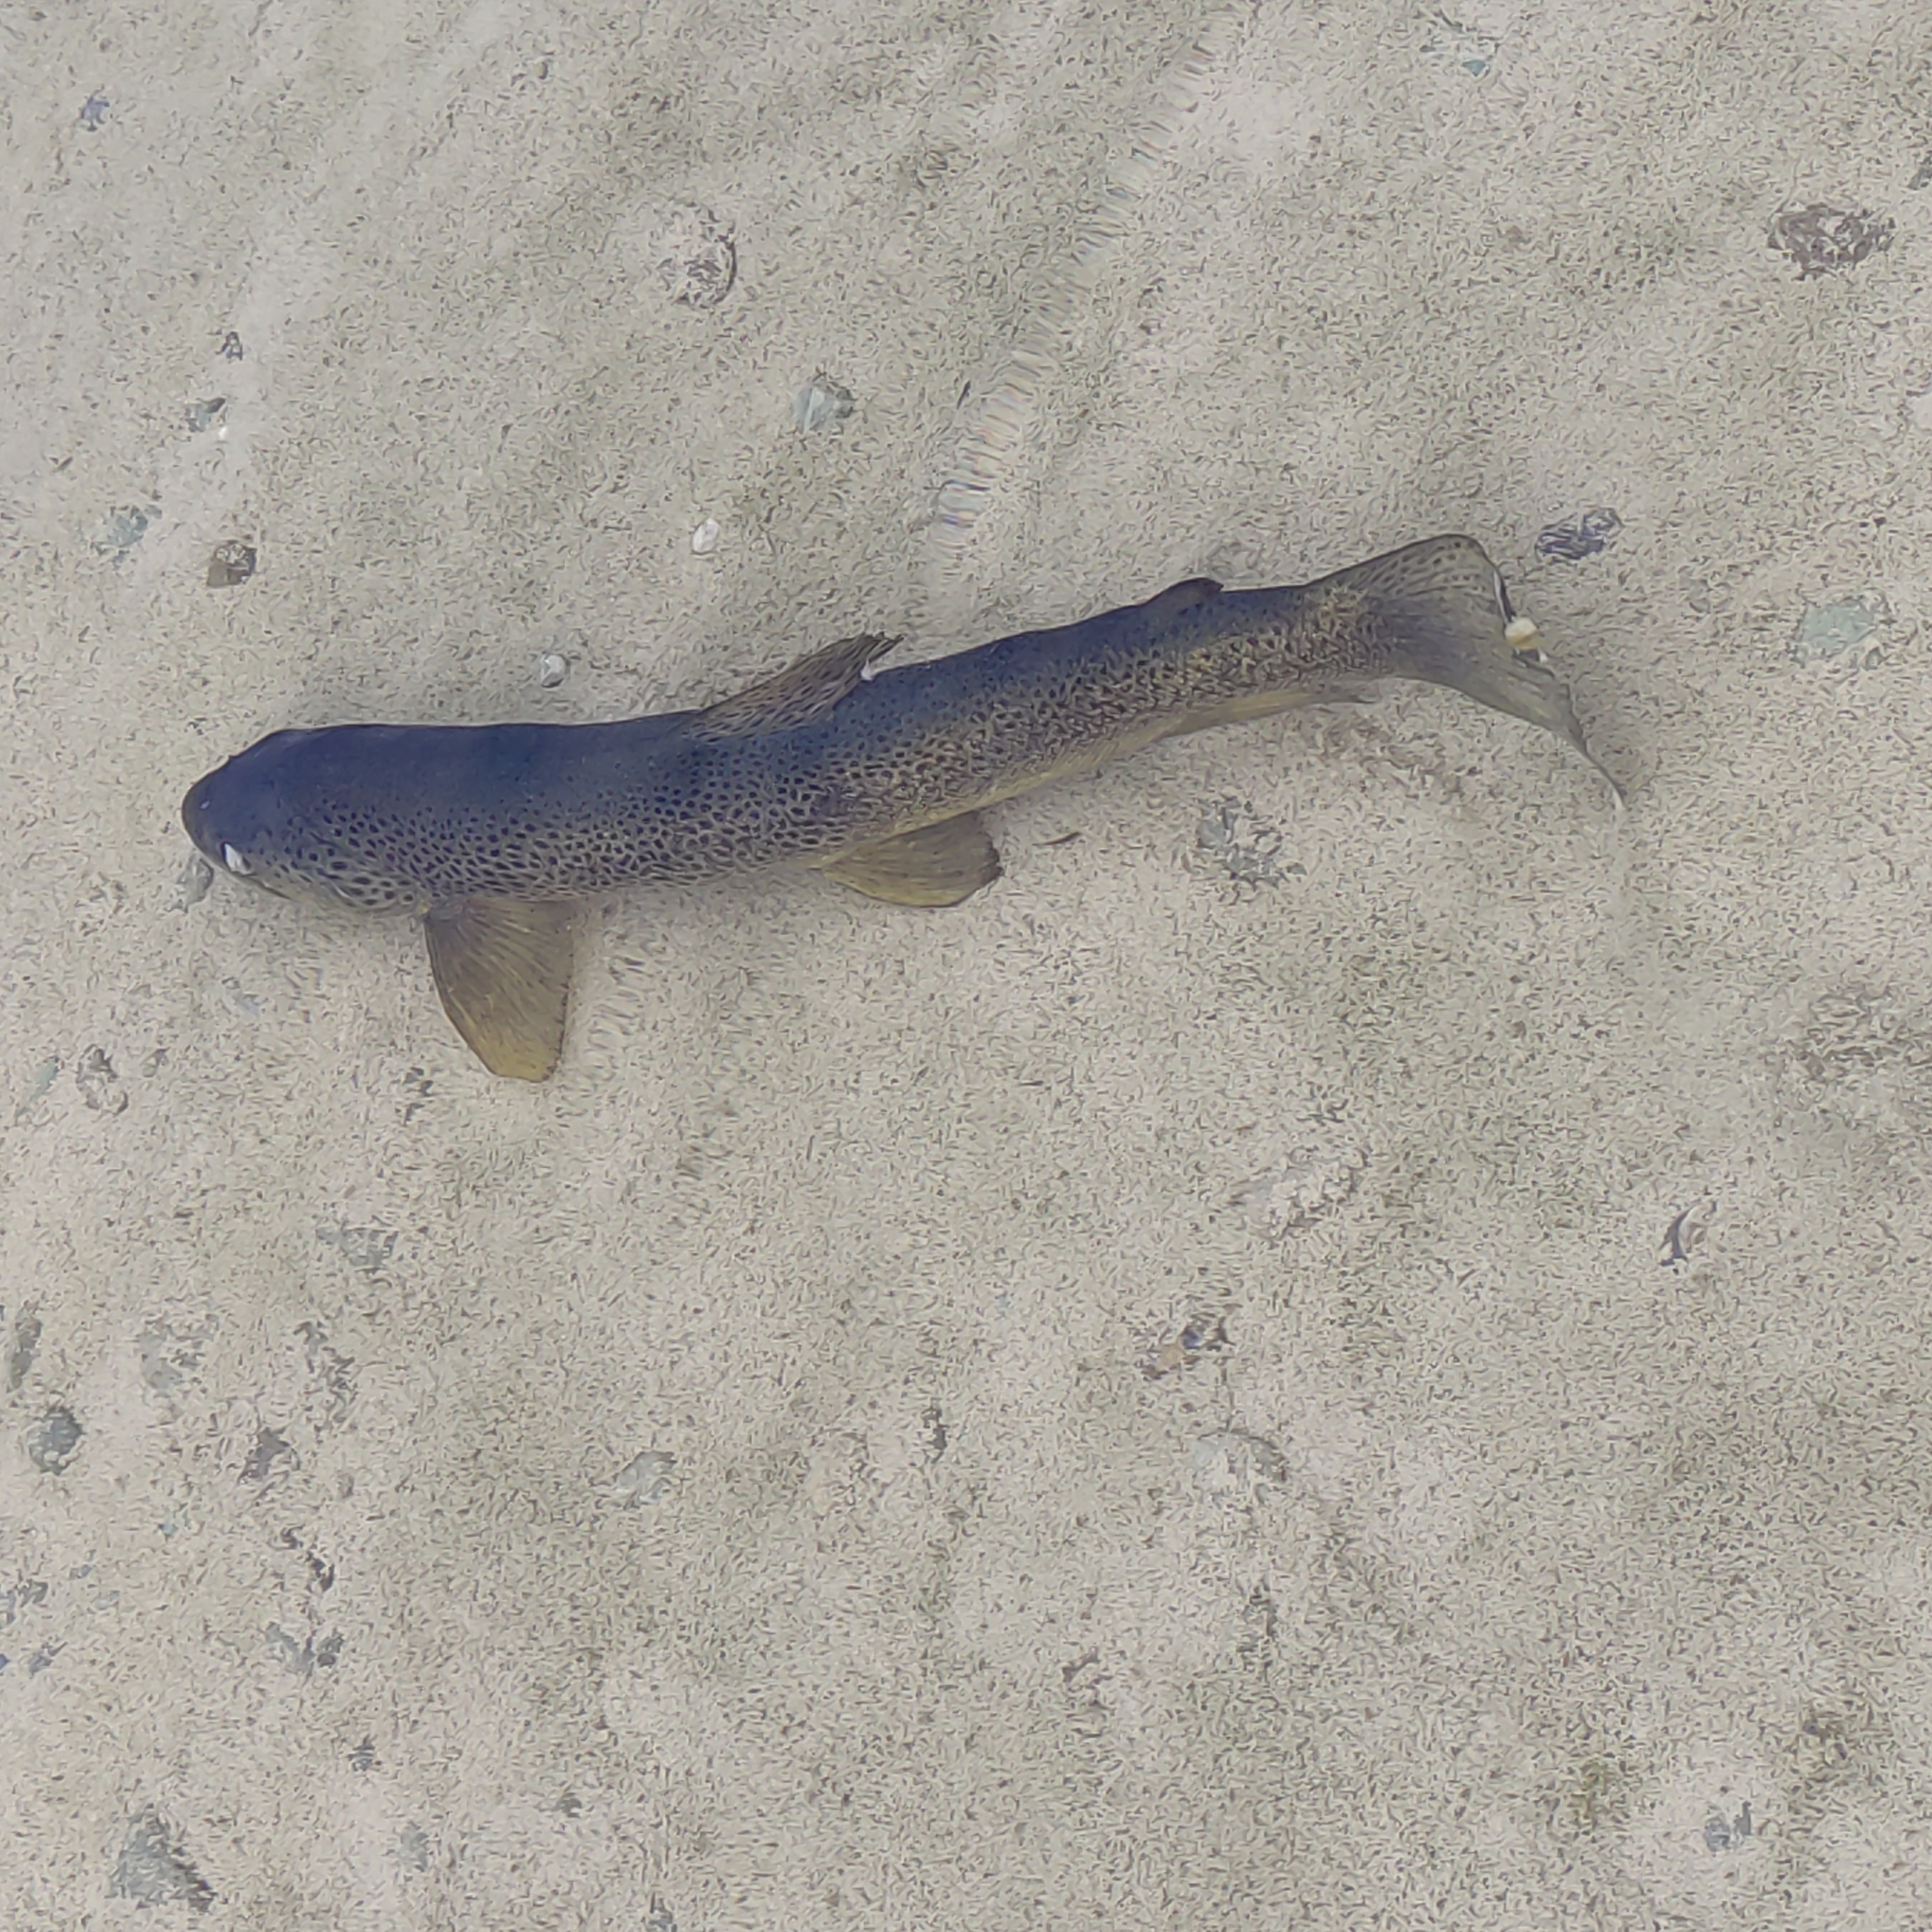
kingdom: Animalia
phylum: Chordata
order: Salmoniformes
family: Salmonidae
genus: Salmo
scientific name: Salmo trutta
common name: Brown trout
